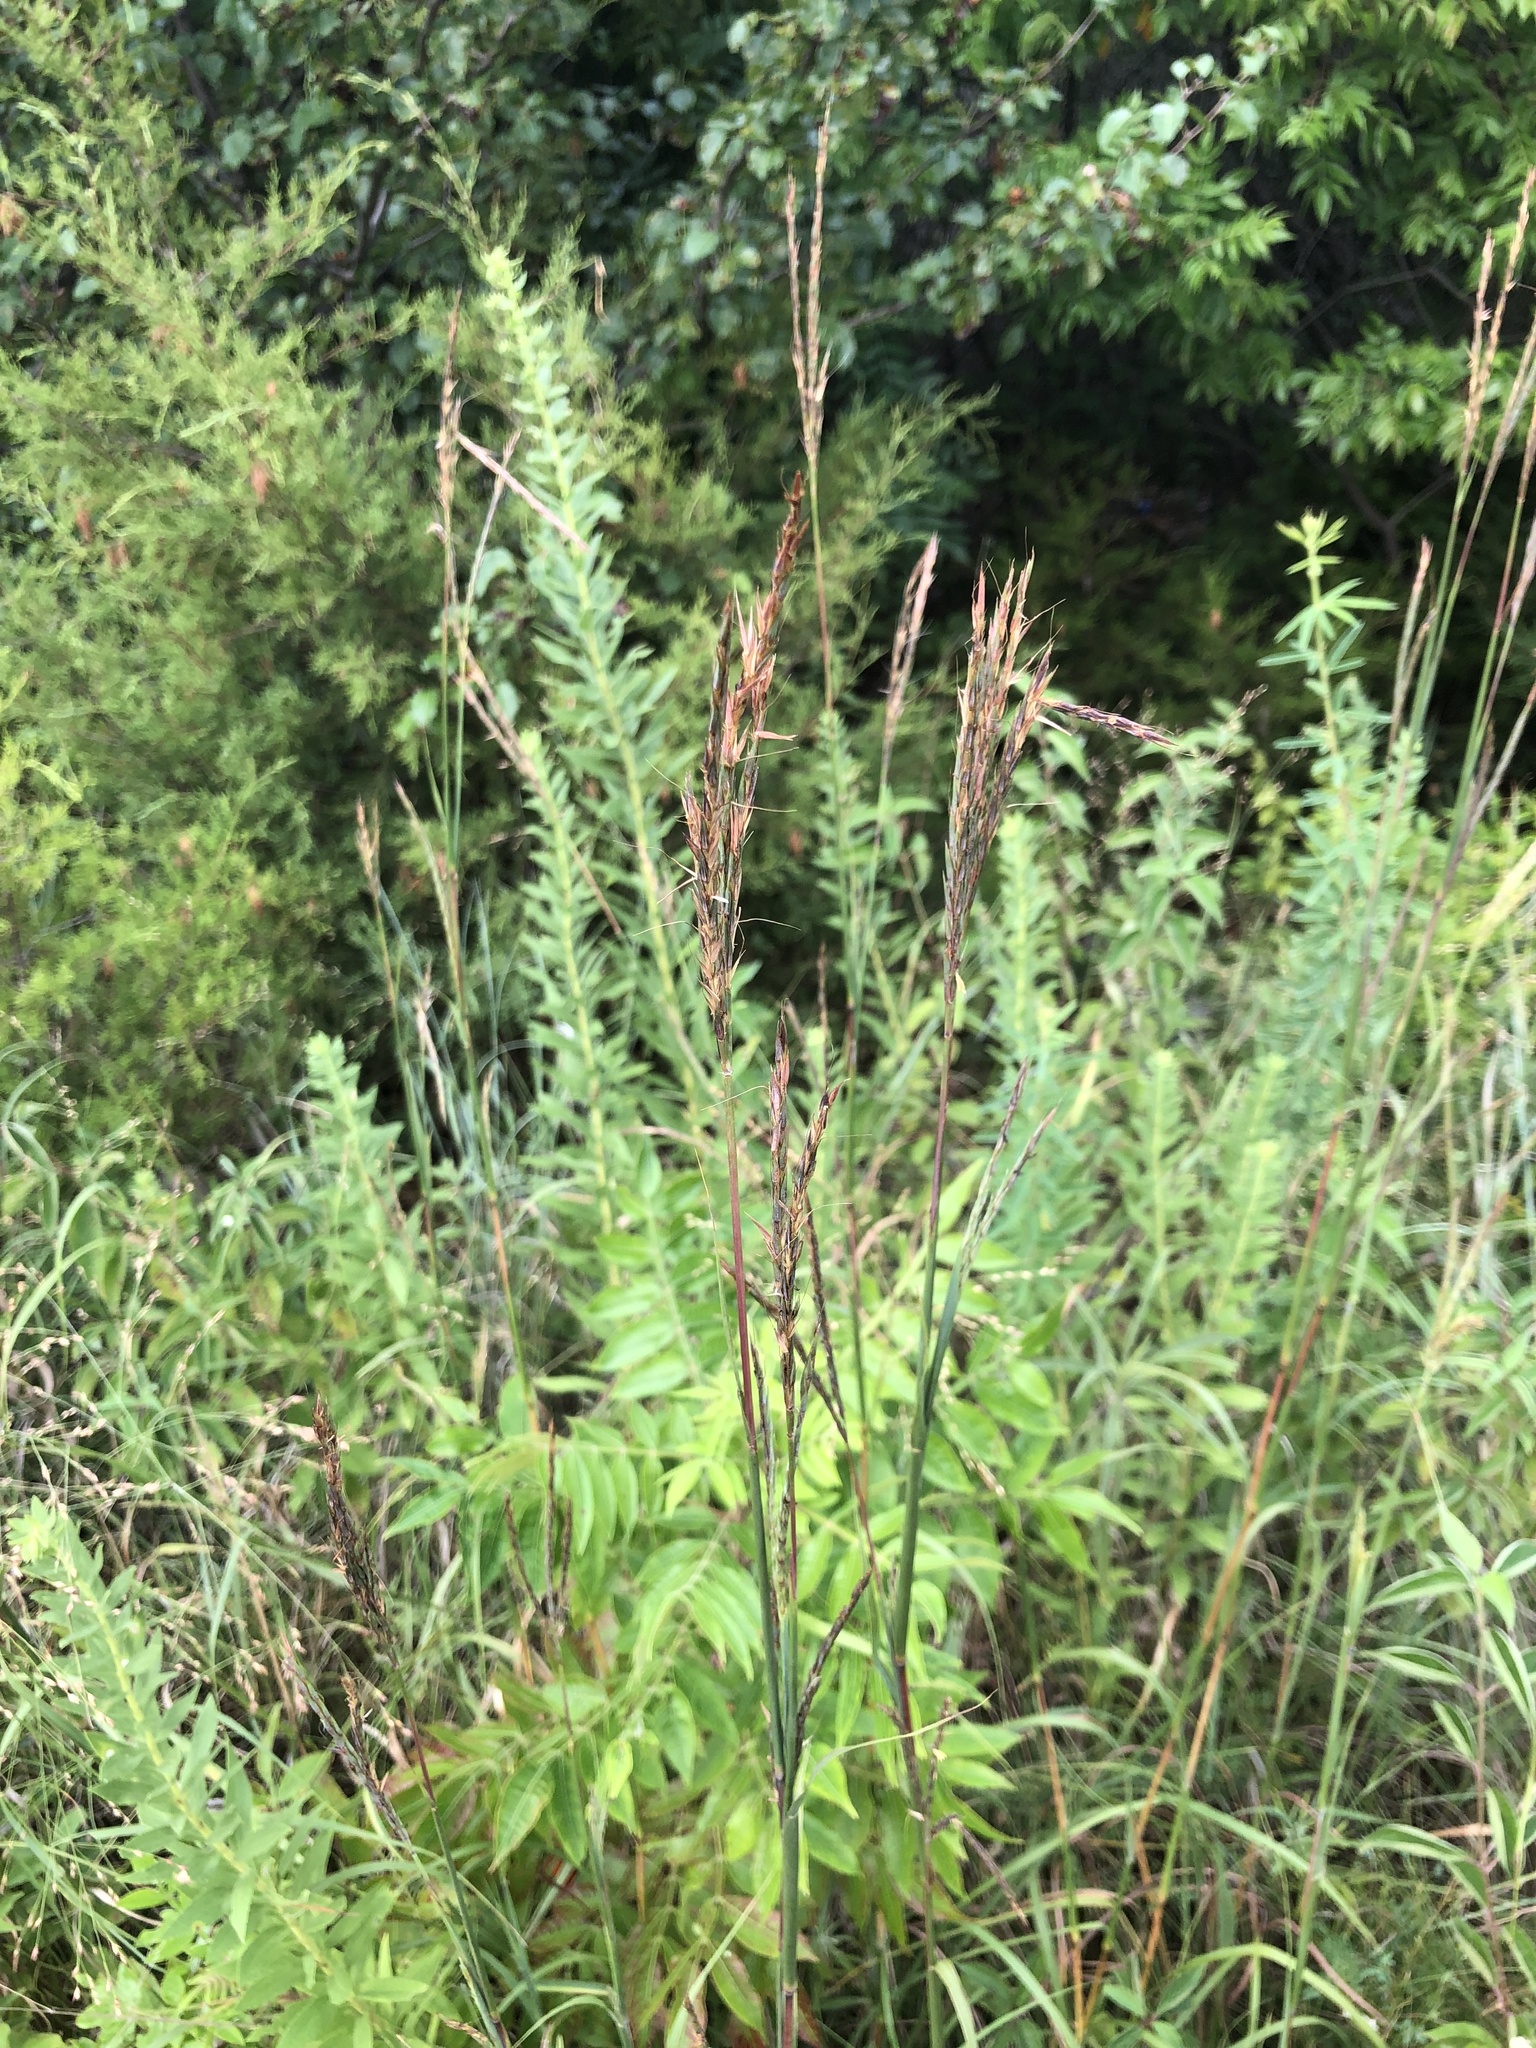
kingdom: Plantae
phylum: Tracheophyta
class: Liliopsida
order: Poales
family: Poaceae
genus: Andropogon
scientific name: Andropogon gerardi
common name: Big bluestem
